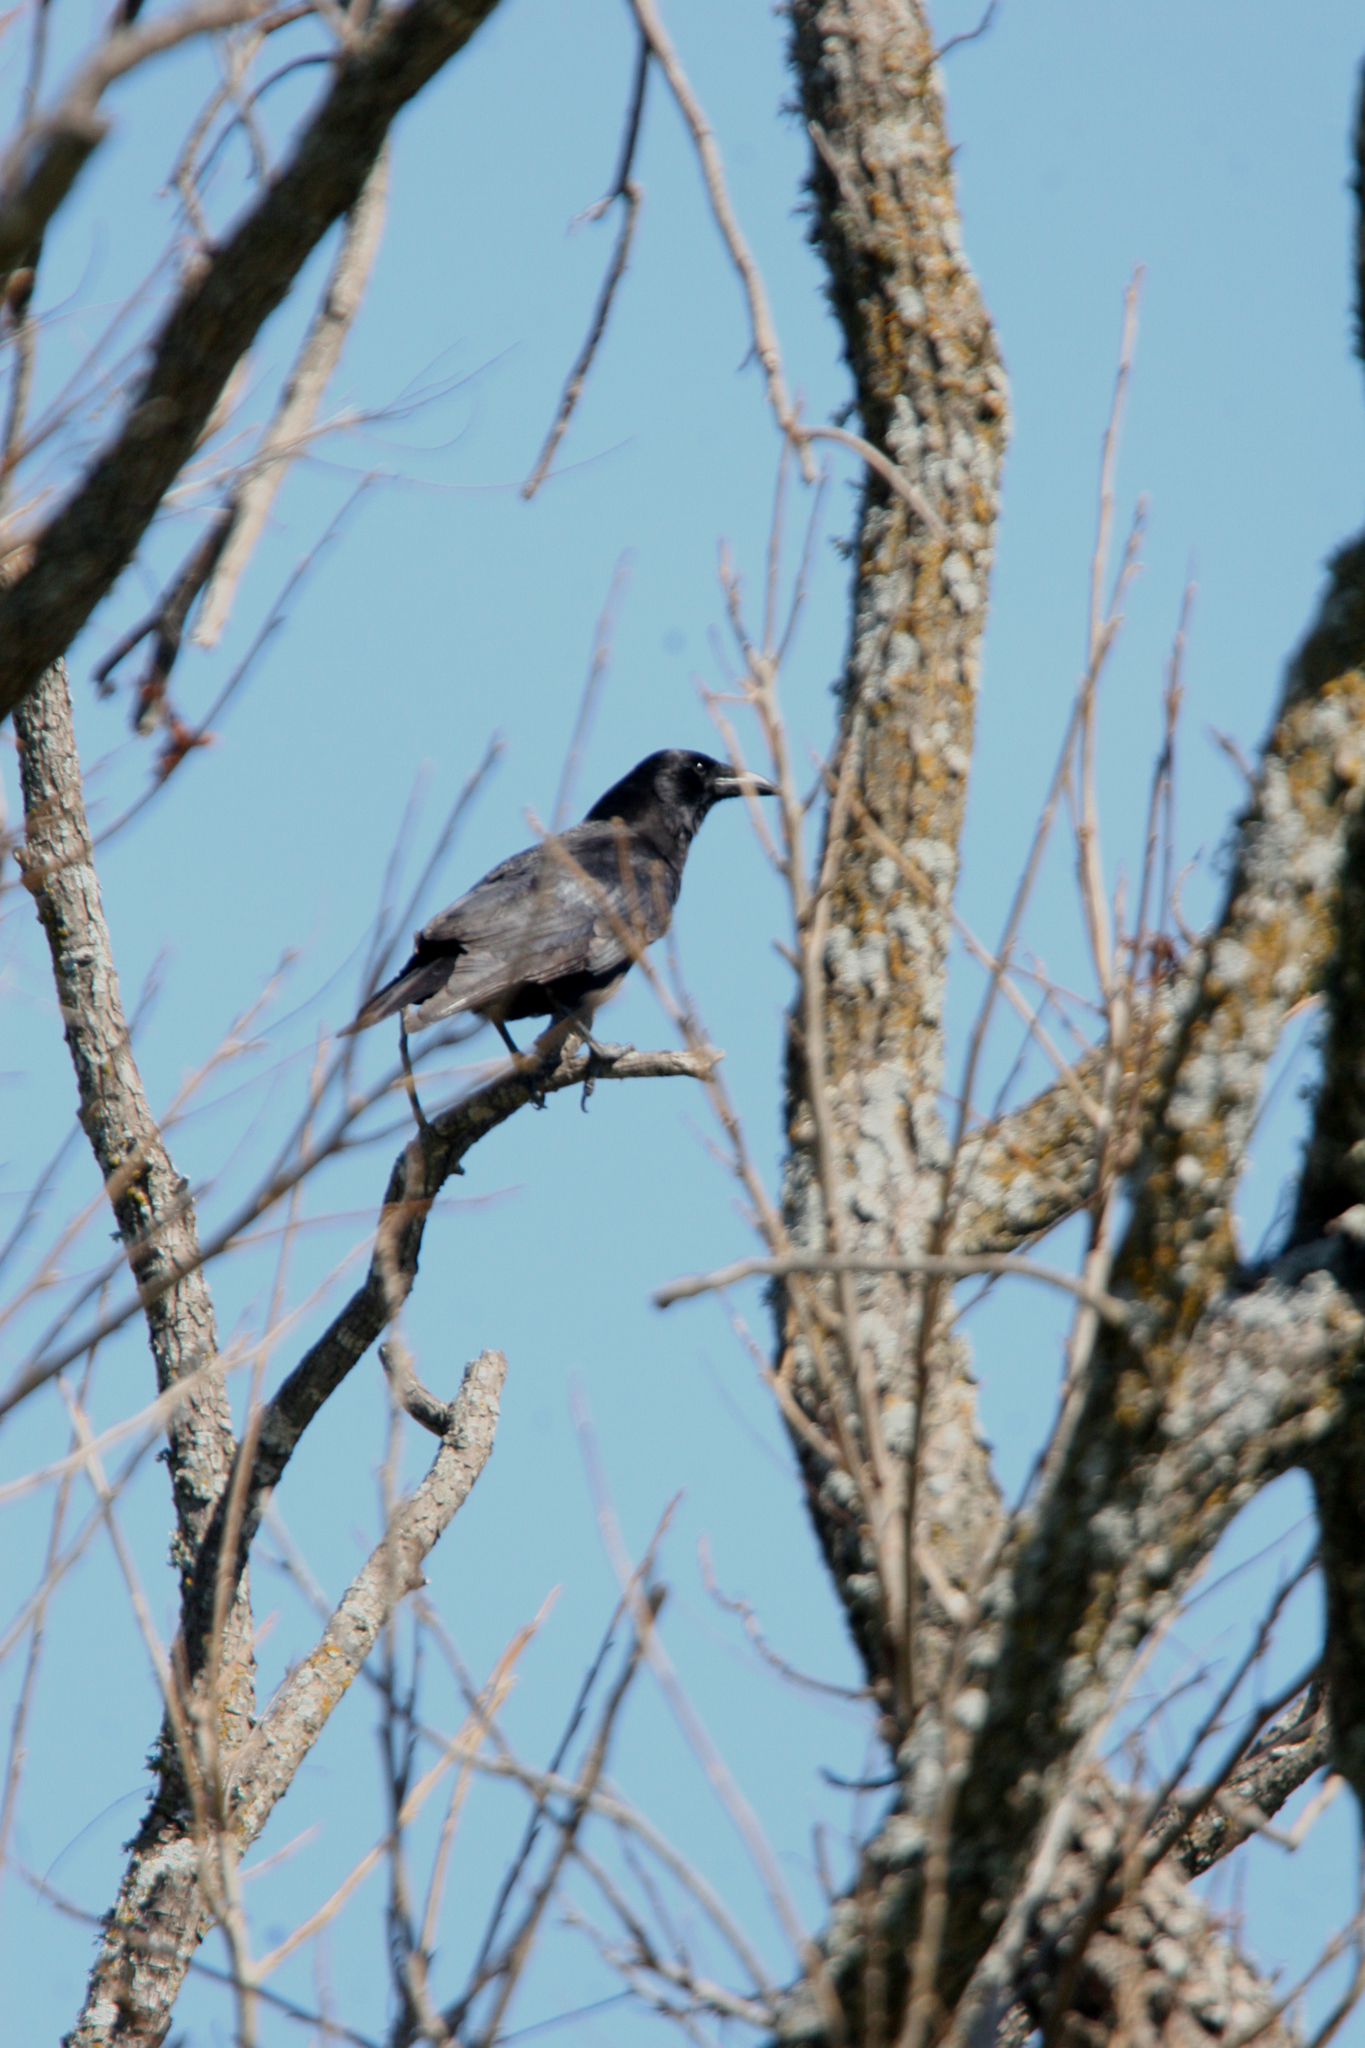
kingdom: Animalia
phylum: Chordata
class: Aves
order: Passeriformes
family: Corvidae
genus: Corvus
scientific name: Corvus brachyrhynchos
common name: American crow
